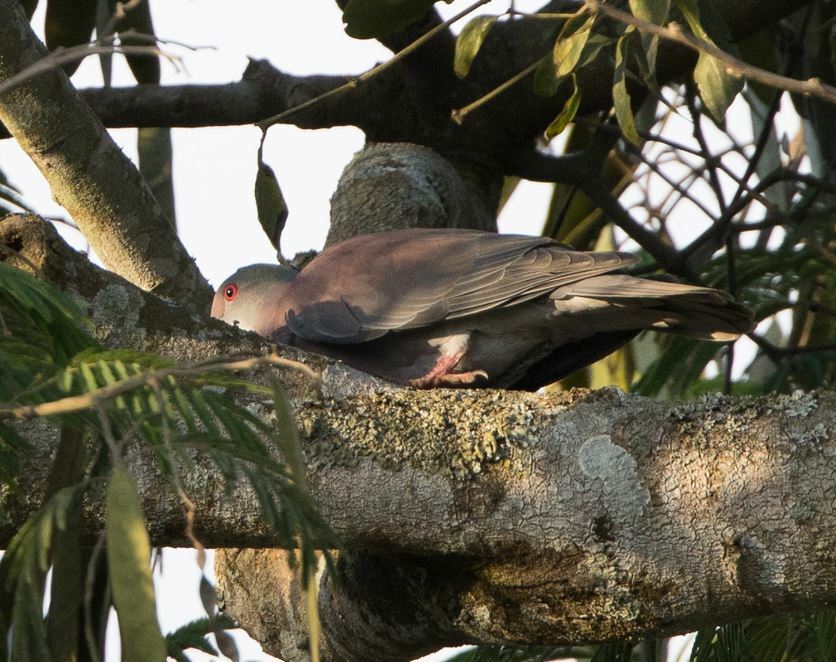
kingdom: Animalia
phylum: Chordata
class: Aves
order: Columbiformes
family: Columbidae
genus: Patagioenas
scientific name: Patagioenas cayennensis
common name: Pale-vented pigeon
